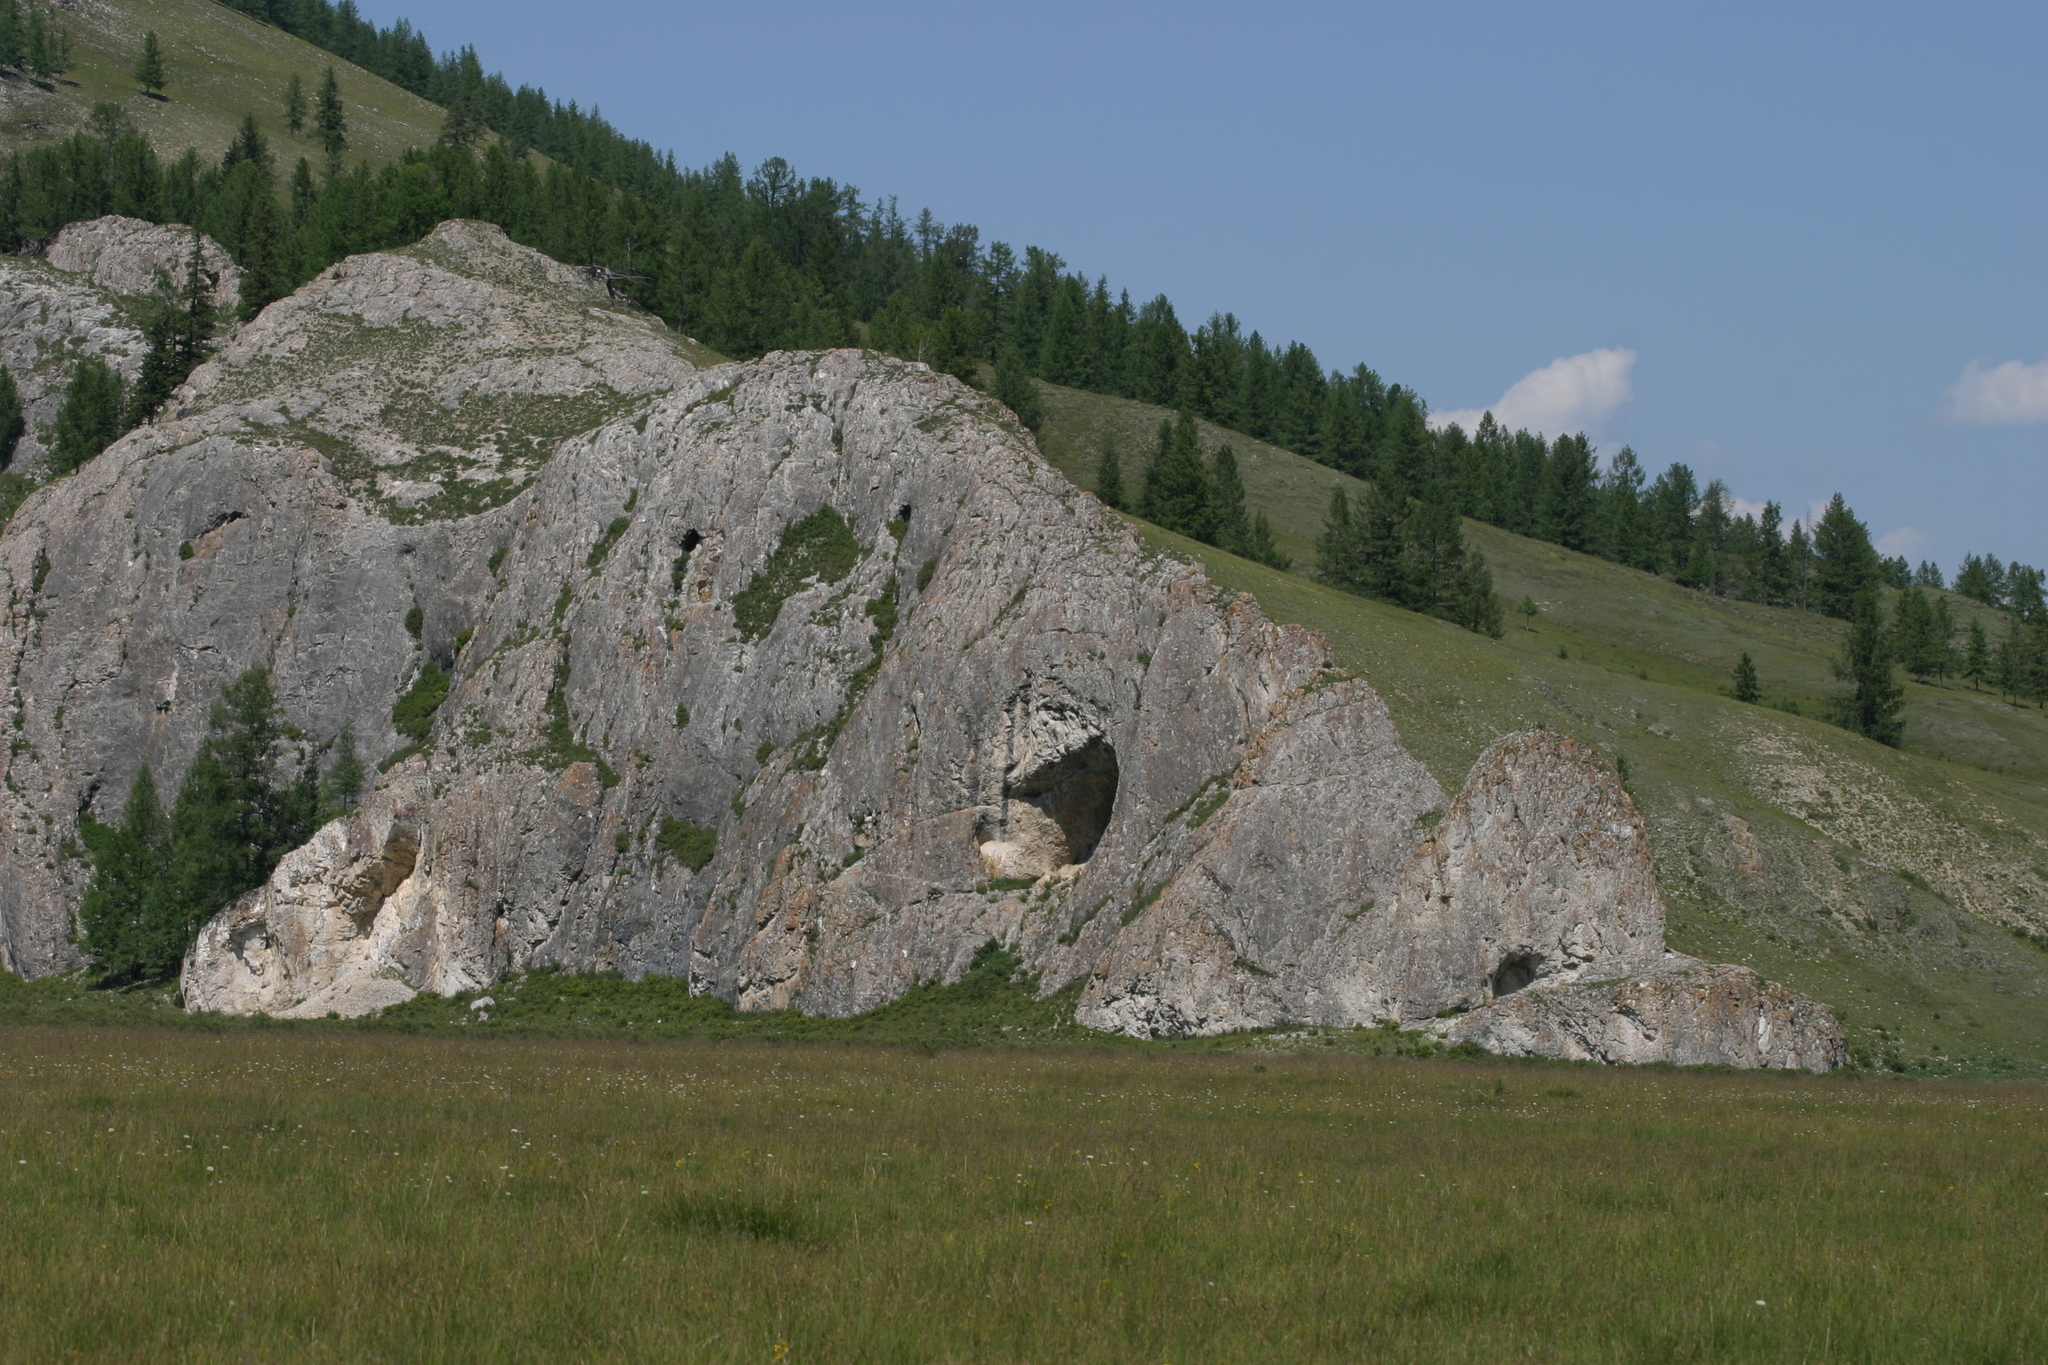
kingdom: Plantae
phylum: Tracheophyta
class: Pinopsida
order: Pinales
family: Pinaceae
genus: Larix
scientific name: Larix sibirica
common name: Siberian larch
